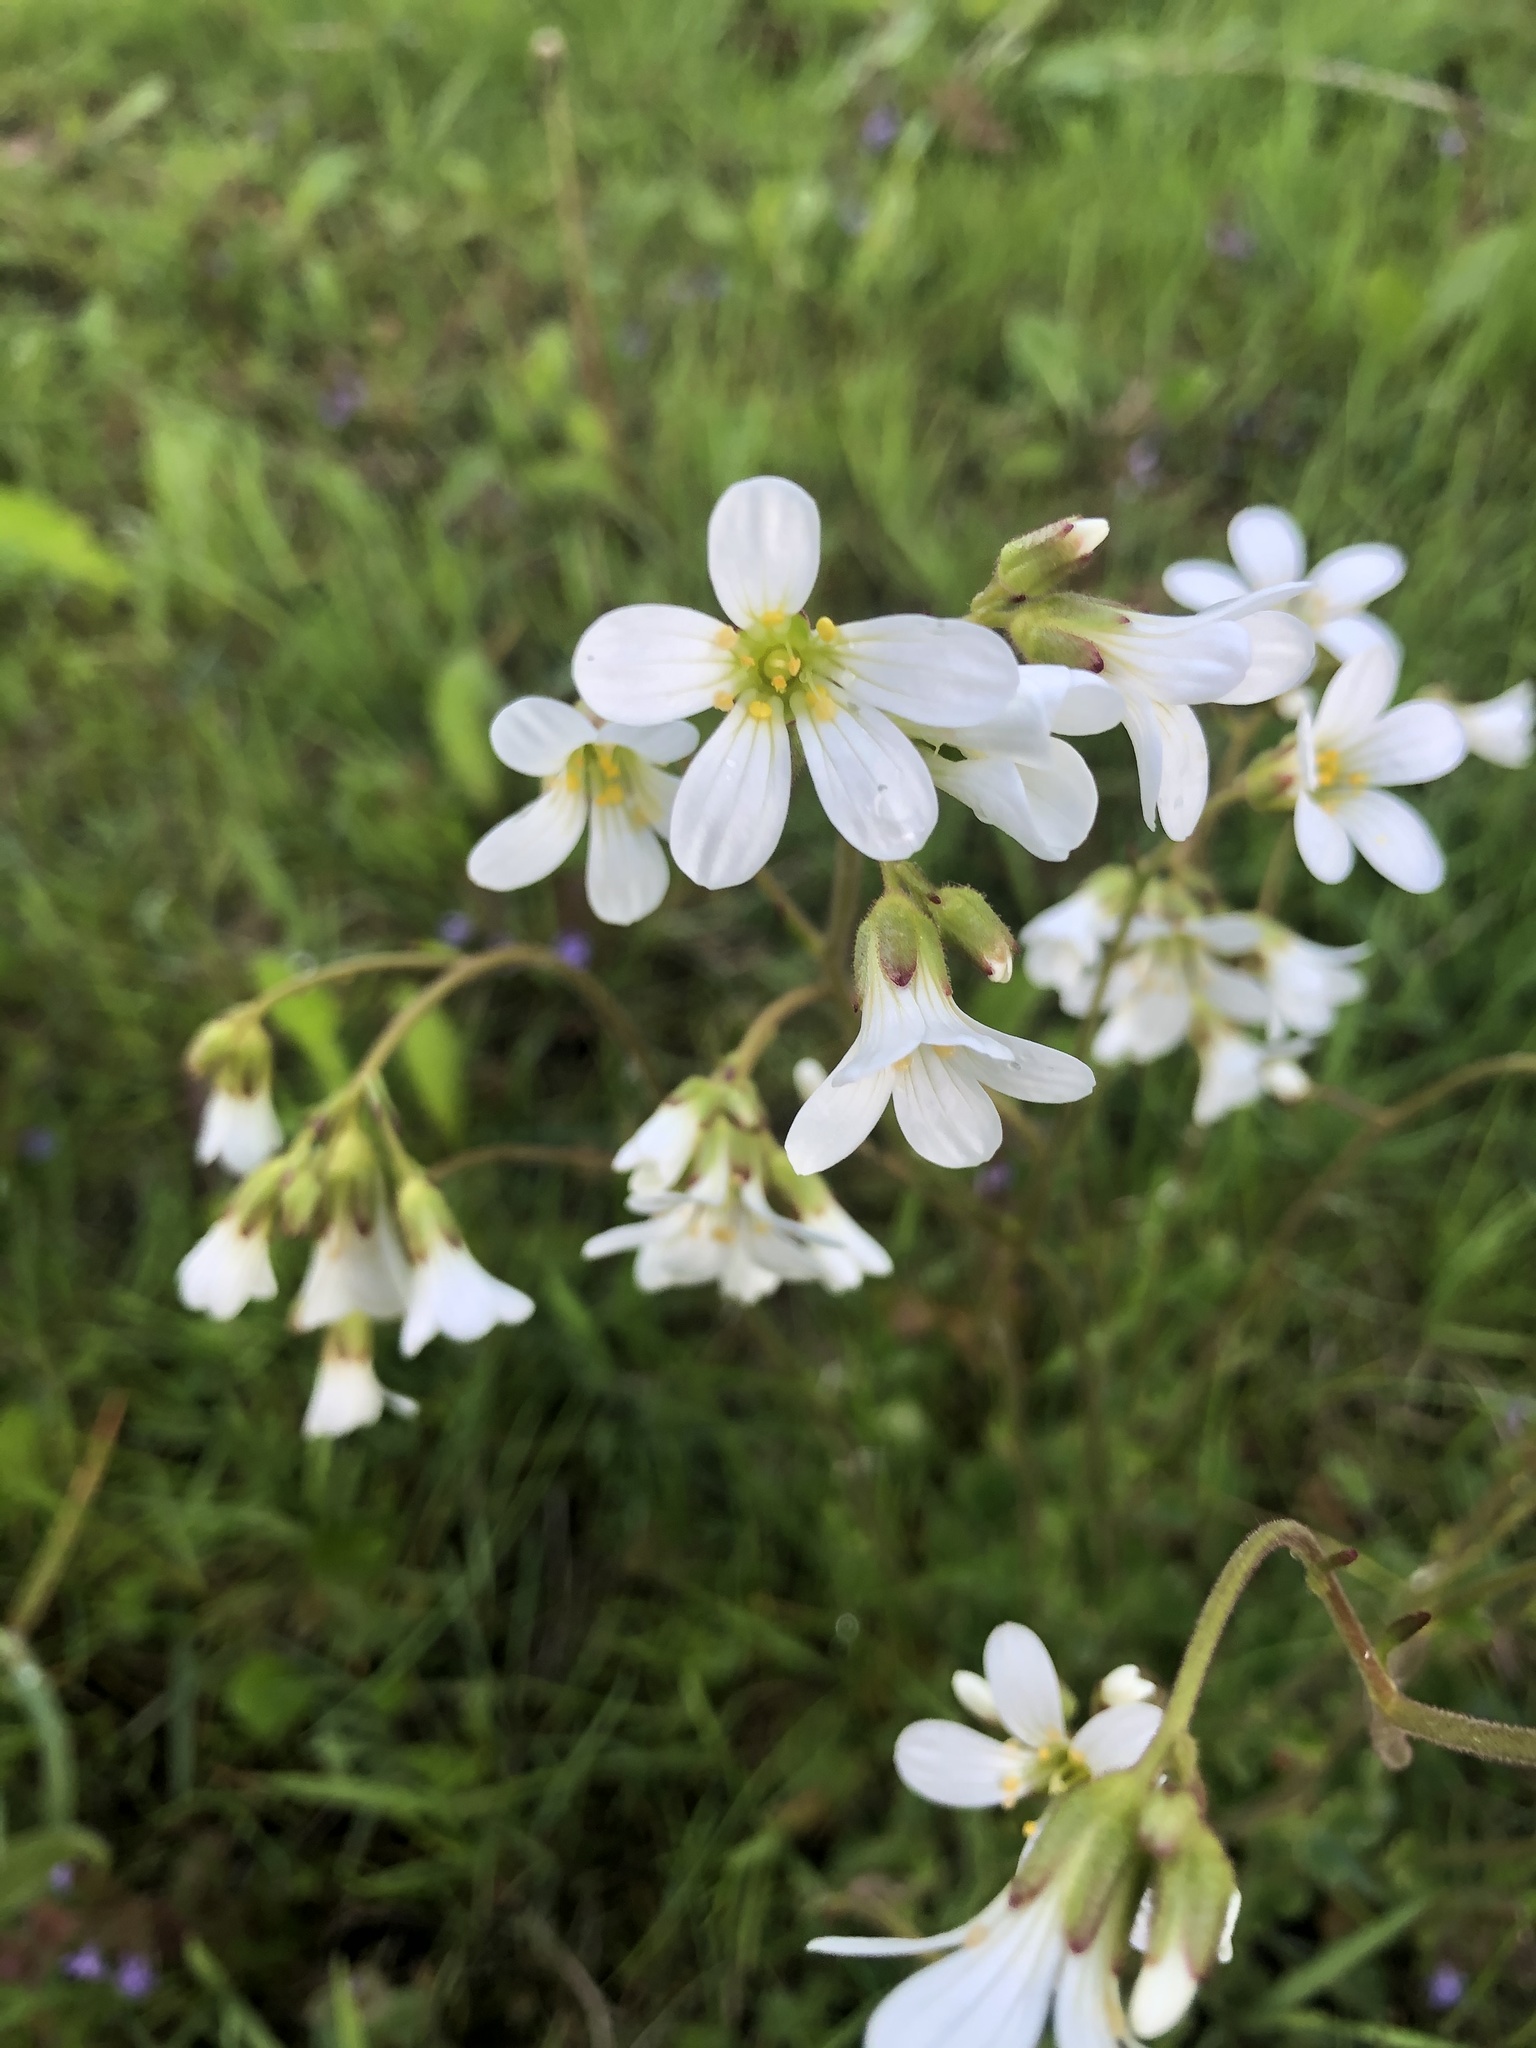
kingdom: Plantae
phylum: Tracheophyta
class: Magnoliopsida
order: Saxifragales
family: Saxifragaceae
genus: Saxifraga
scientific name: Saxifraga granulata
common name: Meadow saxifrage
